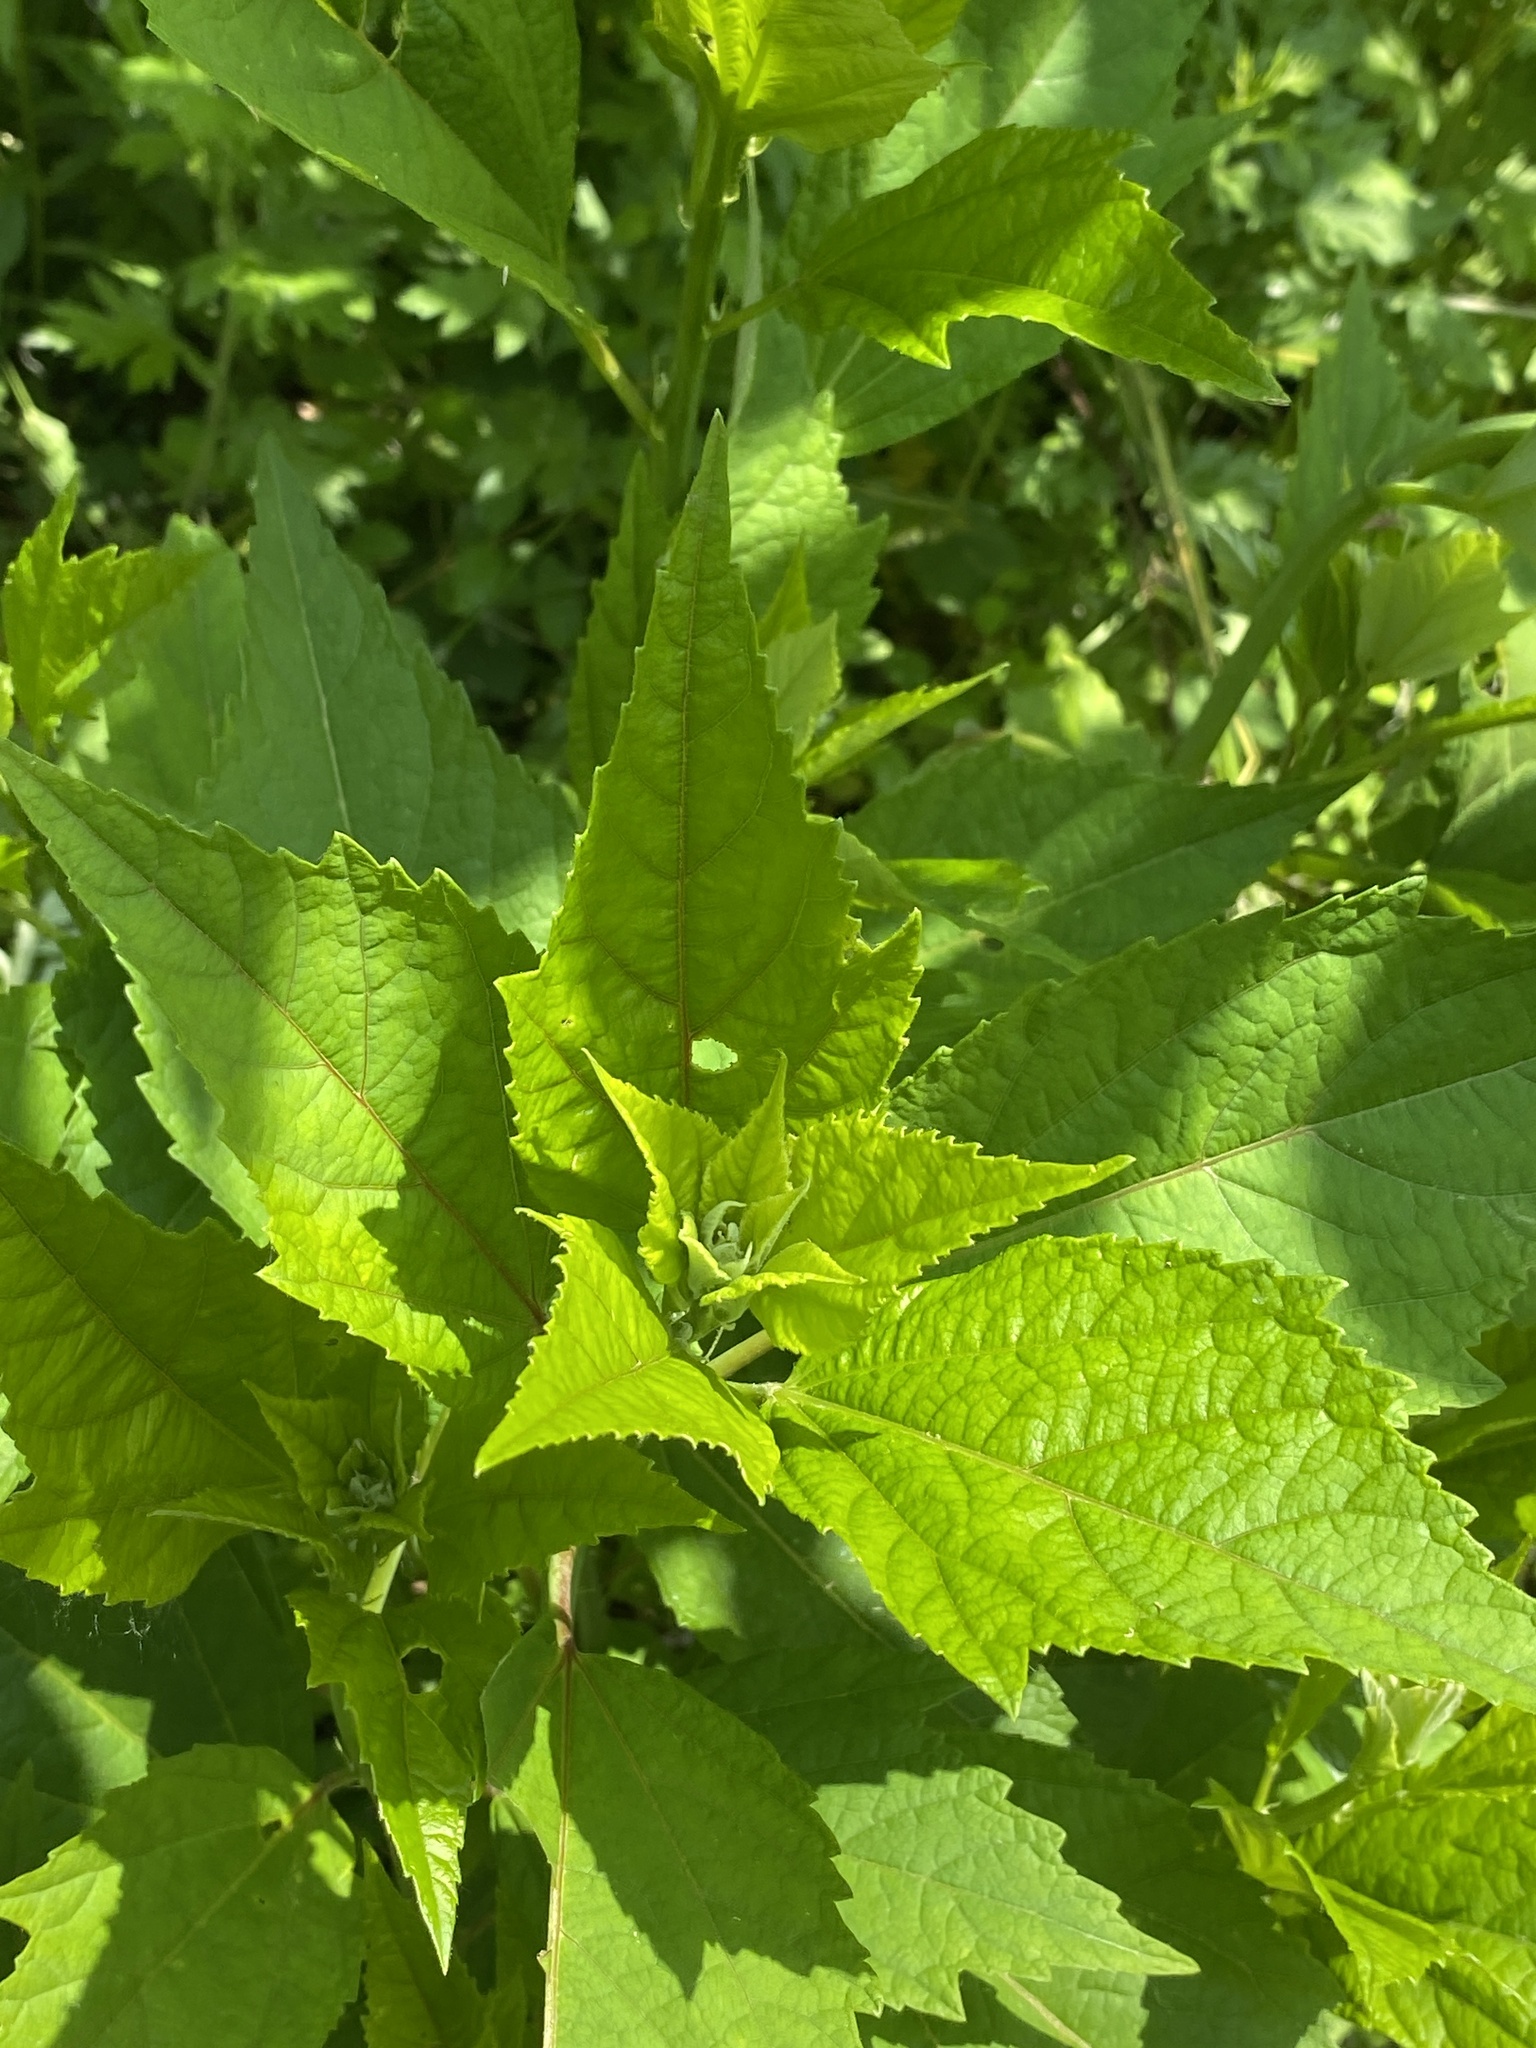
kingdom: Plantae
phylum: Tracheophyta
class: Magnoliopsida
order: Malvales
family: Malvaceae
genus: Hibiscus
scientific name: Hibiscus moscheutos
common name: Common rose-mallow
